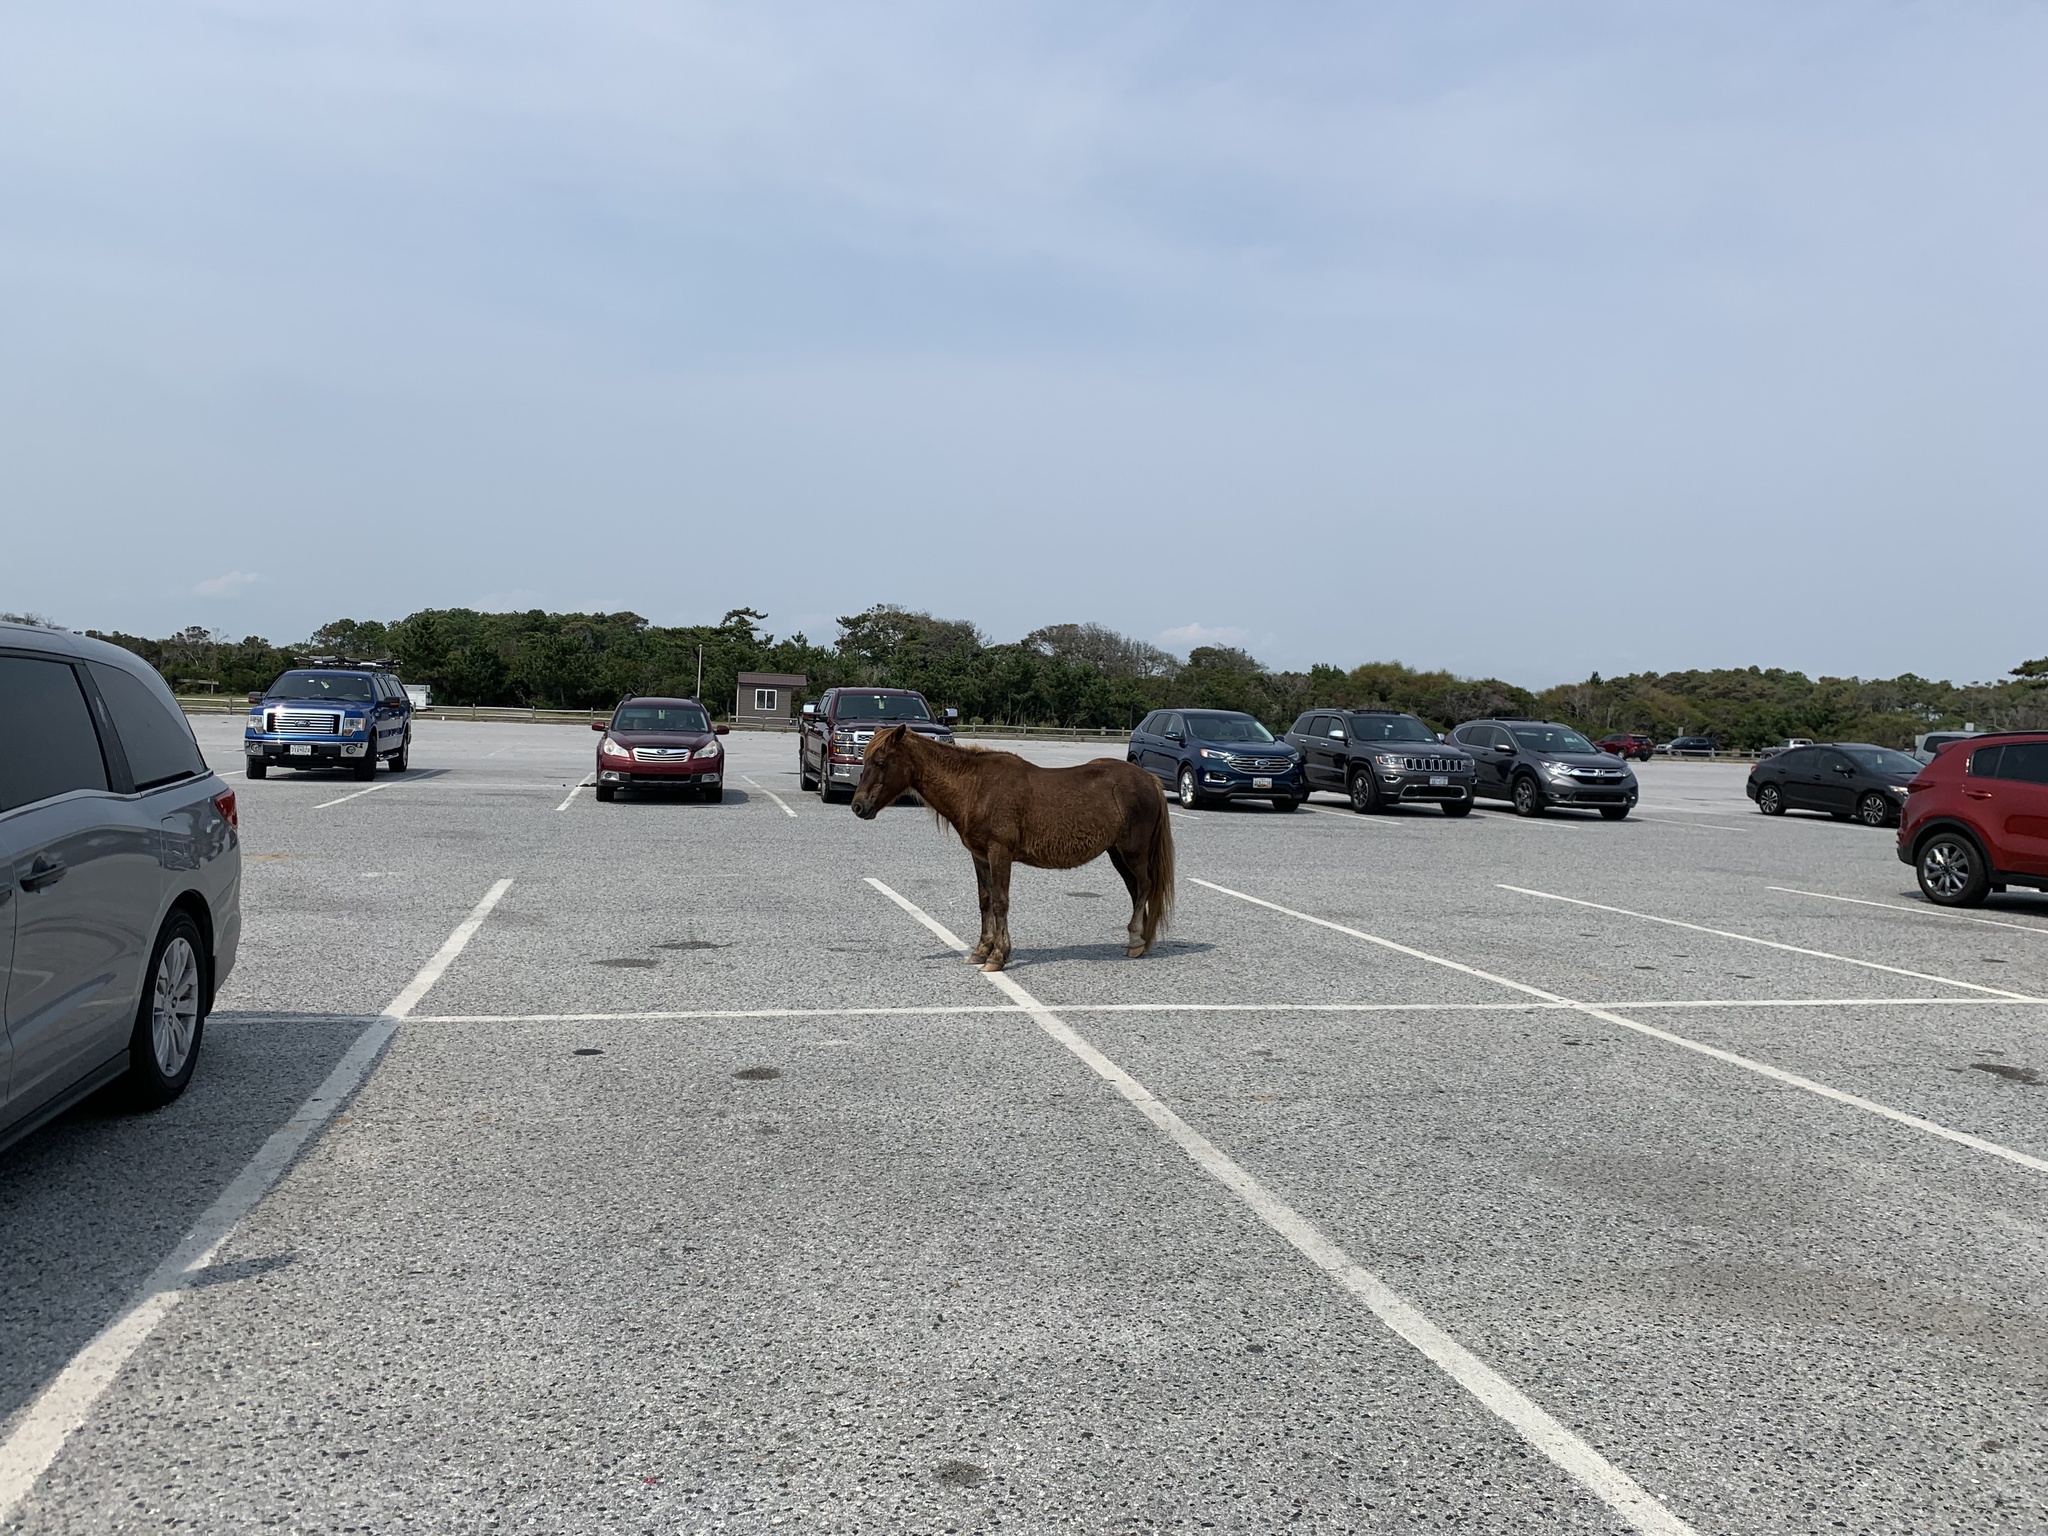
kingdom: Animalia
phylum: Chordata
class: Mammalia
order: Perissodactyla
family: Equidae
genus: Equus
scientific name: Equus caballus
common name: Horse
